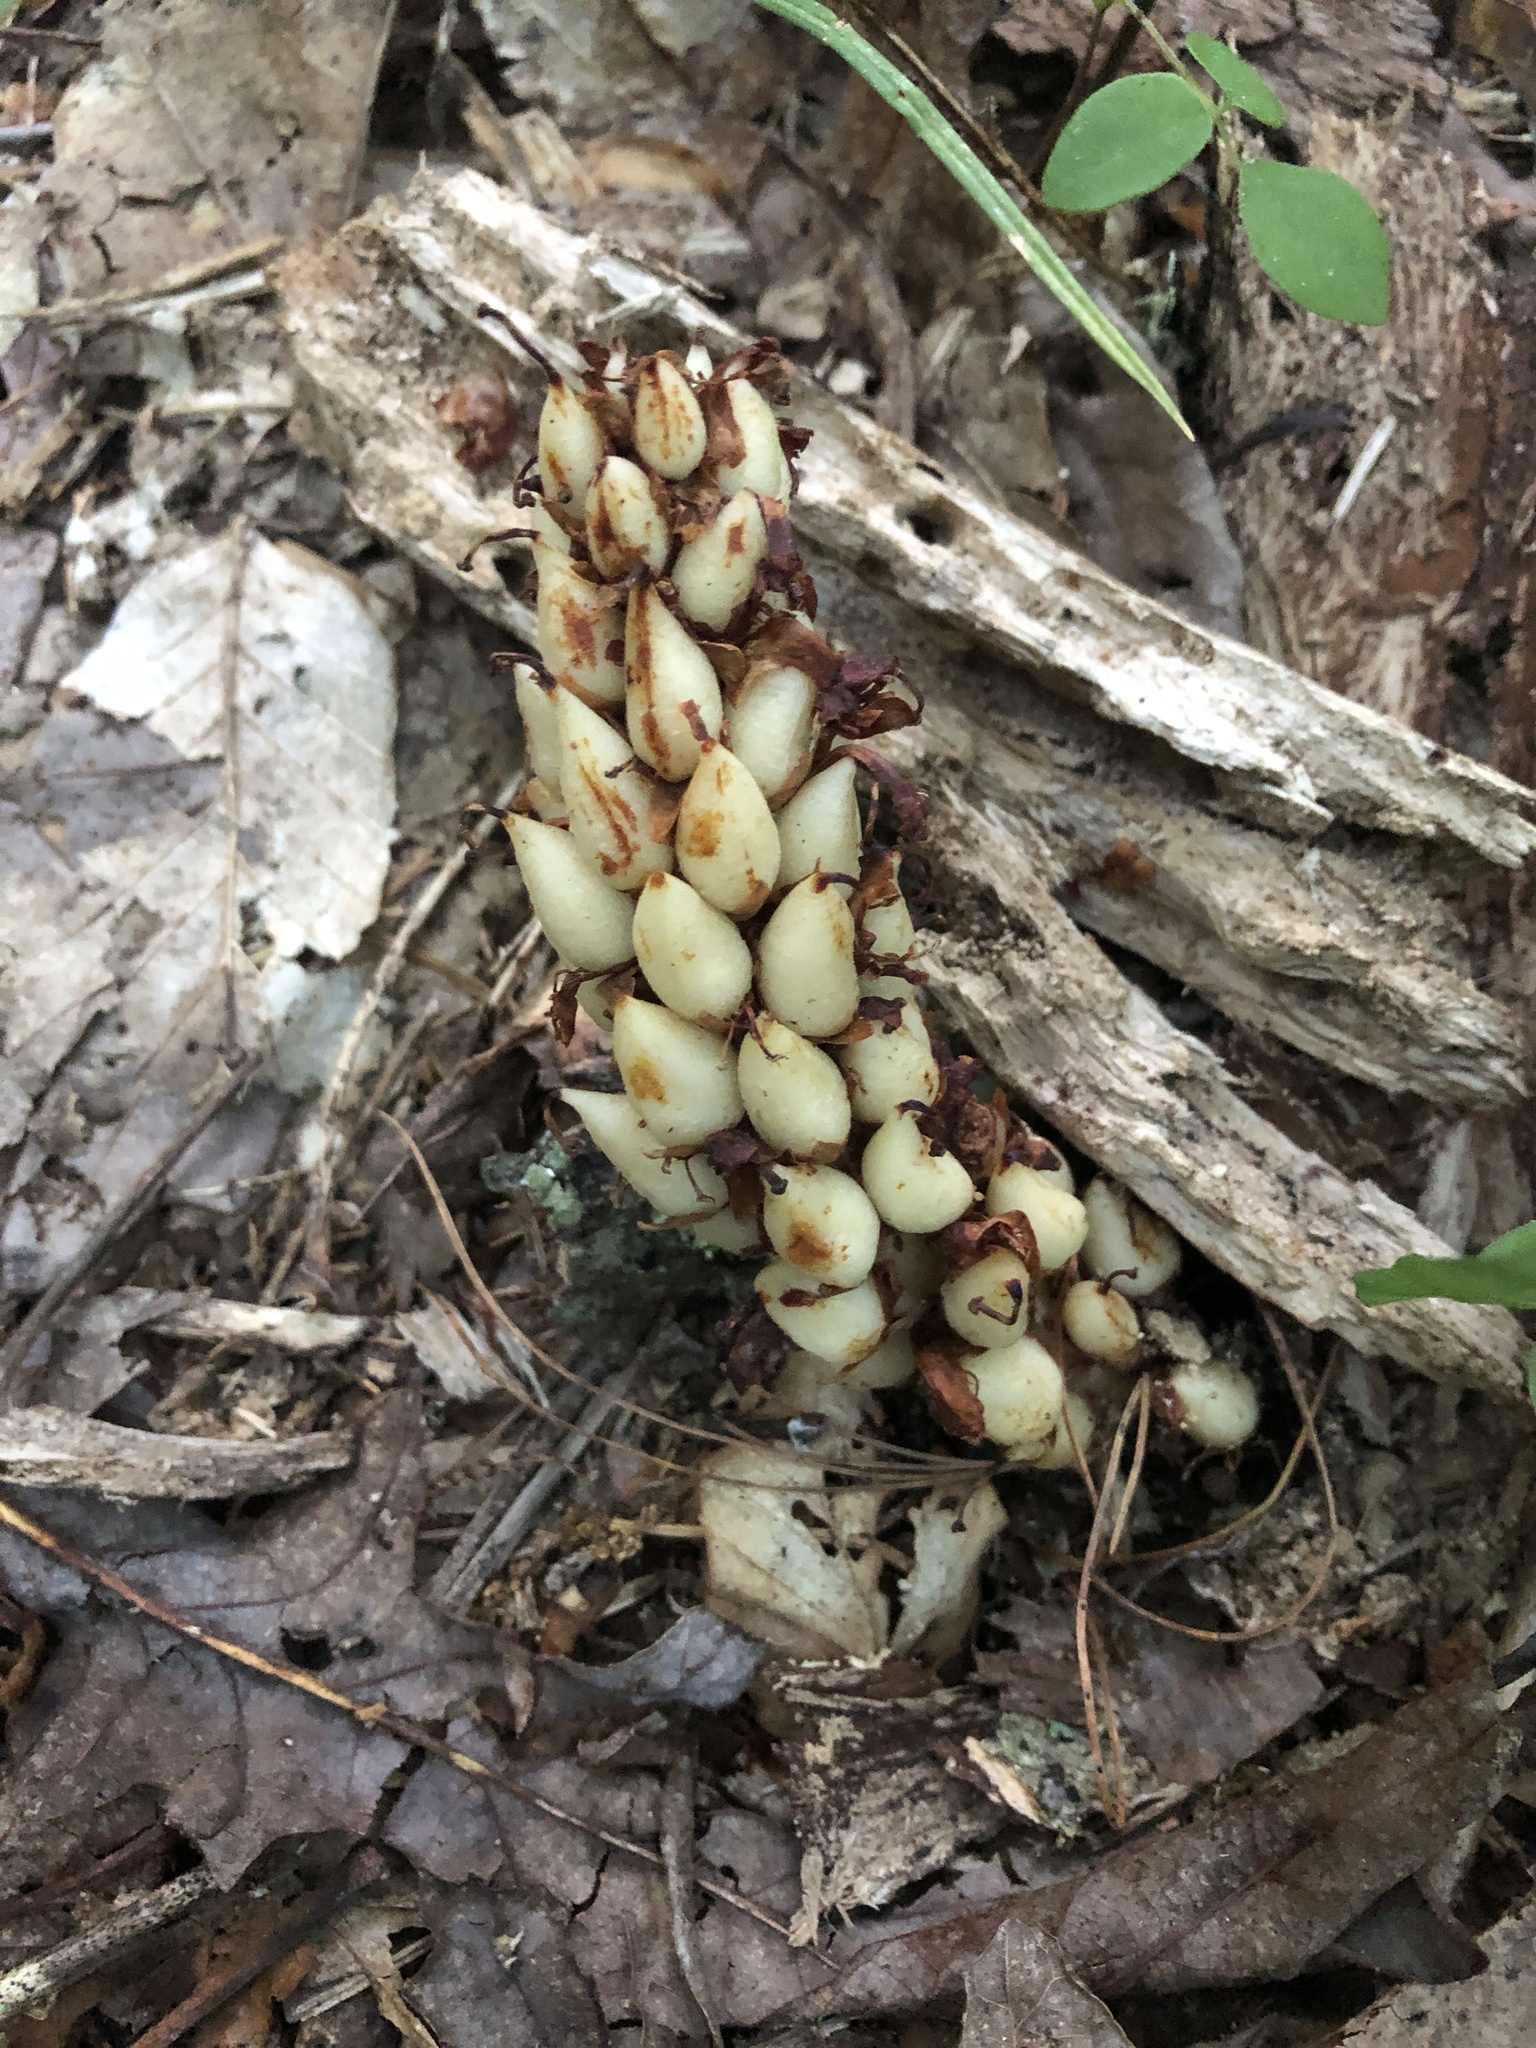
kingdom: Plantae
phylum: Tracheophyta
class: Magnoliopsida
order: Lamiales
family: Orobanchaceae
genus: Conopholis
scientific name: Conopholis americana
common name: American cancer-root
